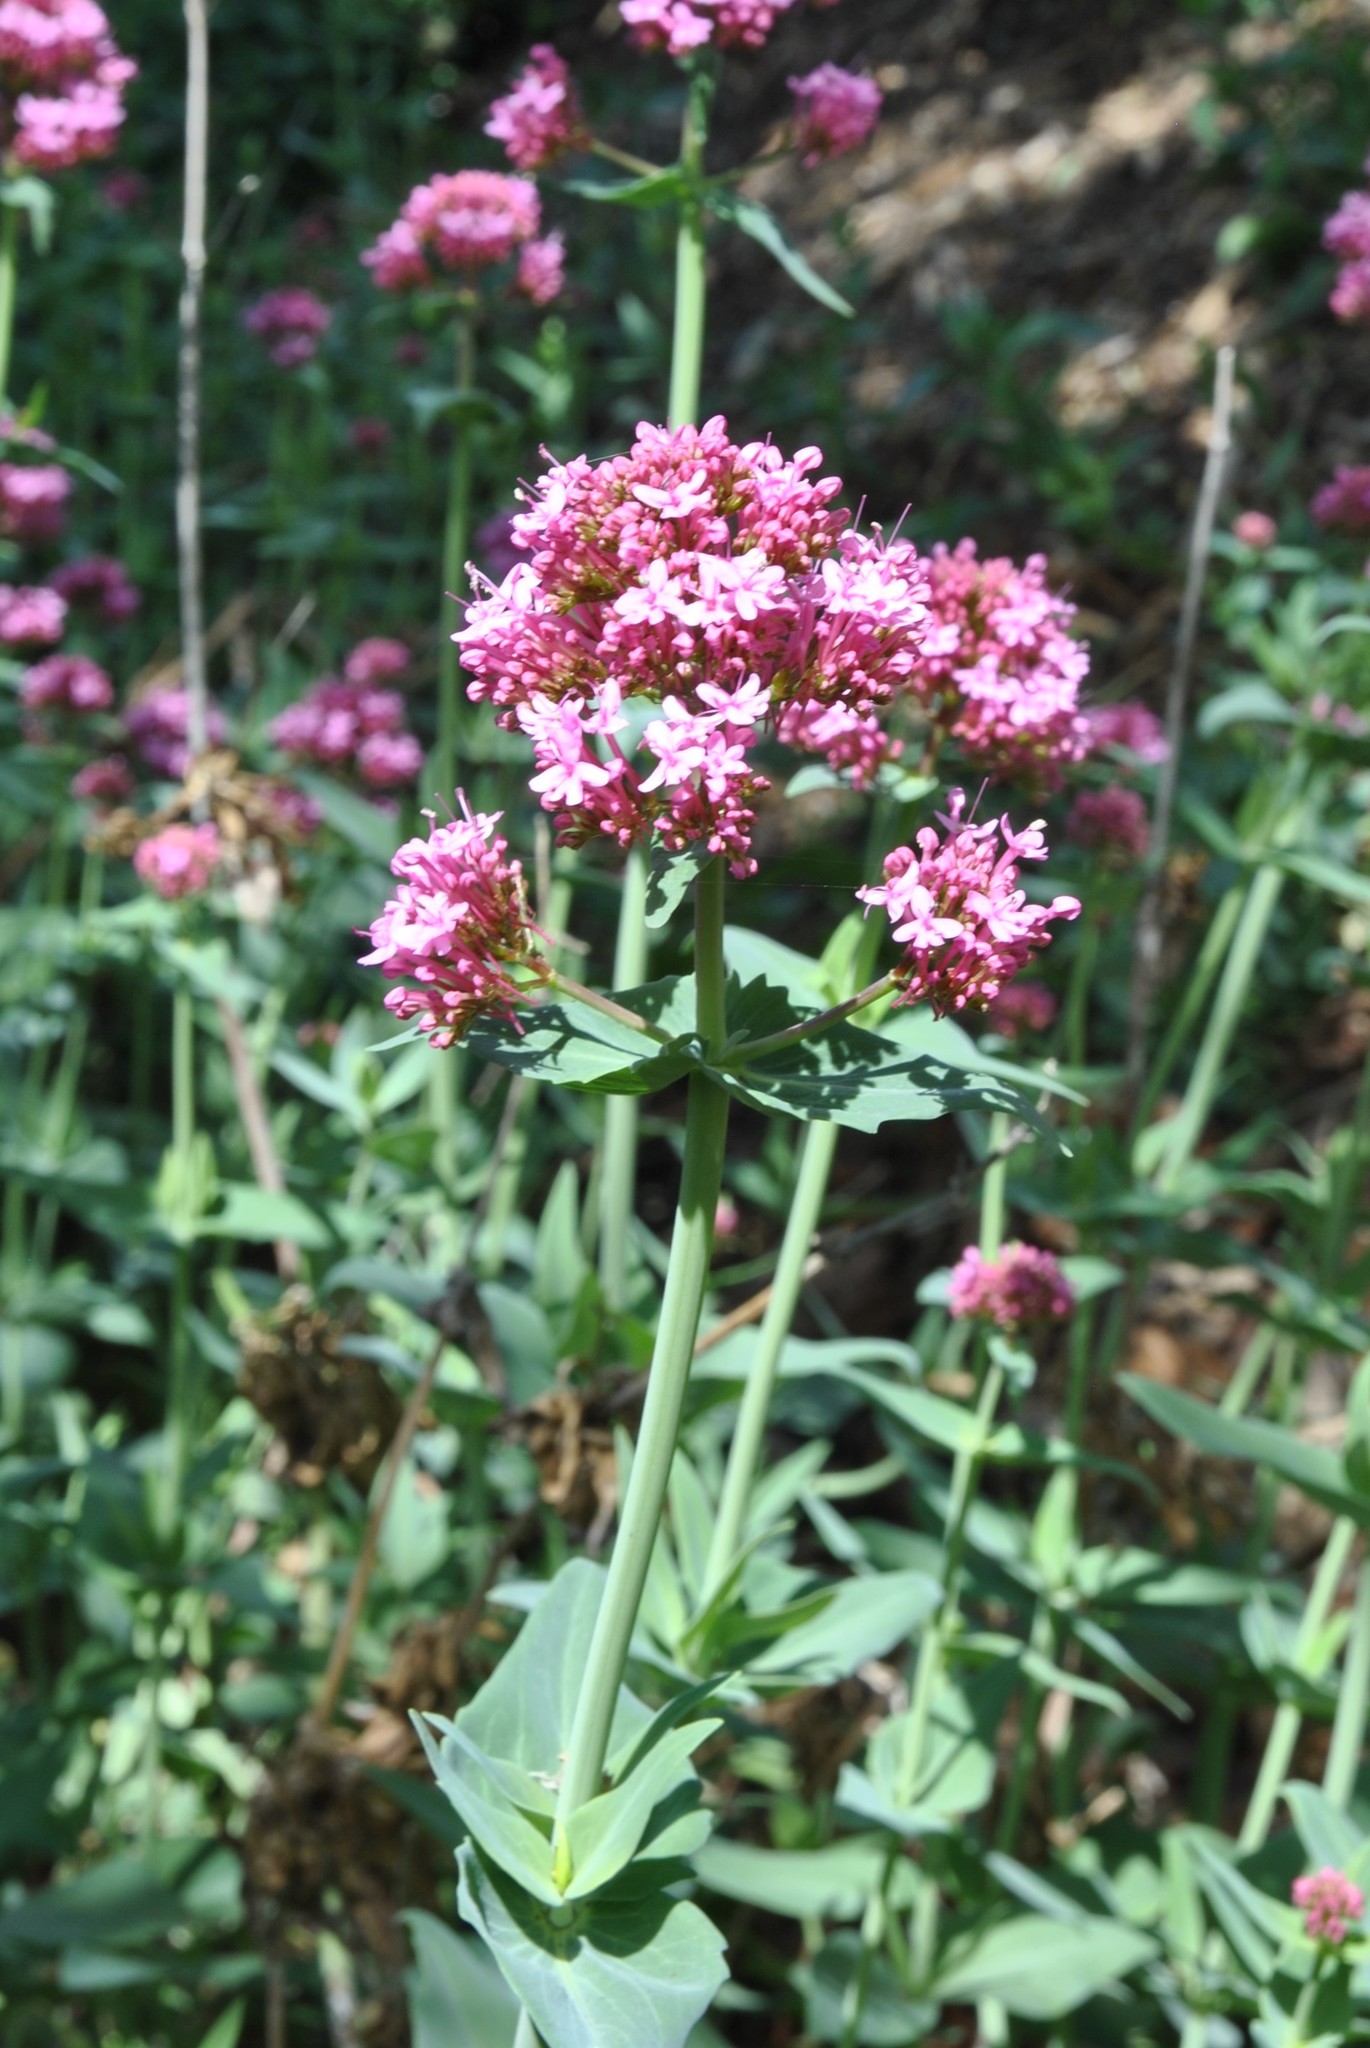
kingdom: Plantae
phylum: Tracheophyta
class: Magnoliopsida
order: Dipsacales
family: Caprifoliaceae
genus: Centranthus
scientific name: Centranthus ruber
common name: Red valerian
